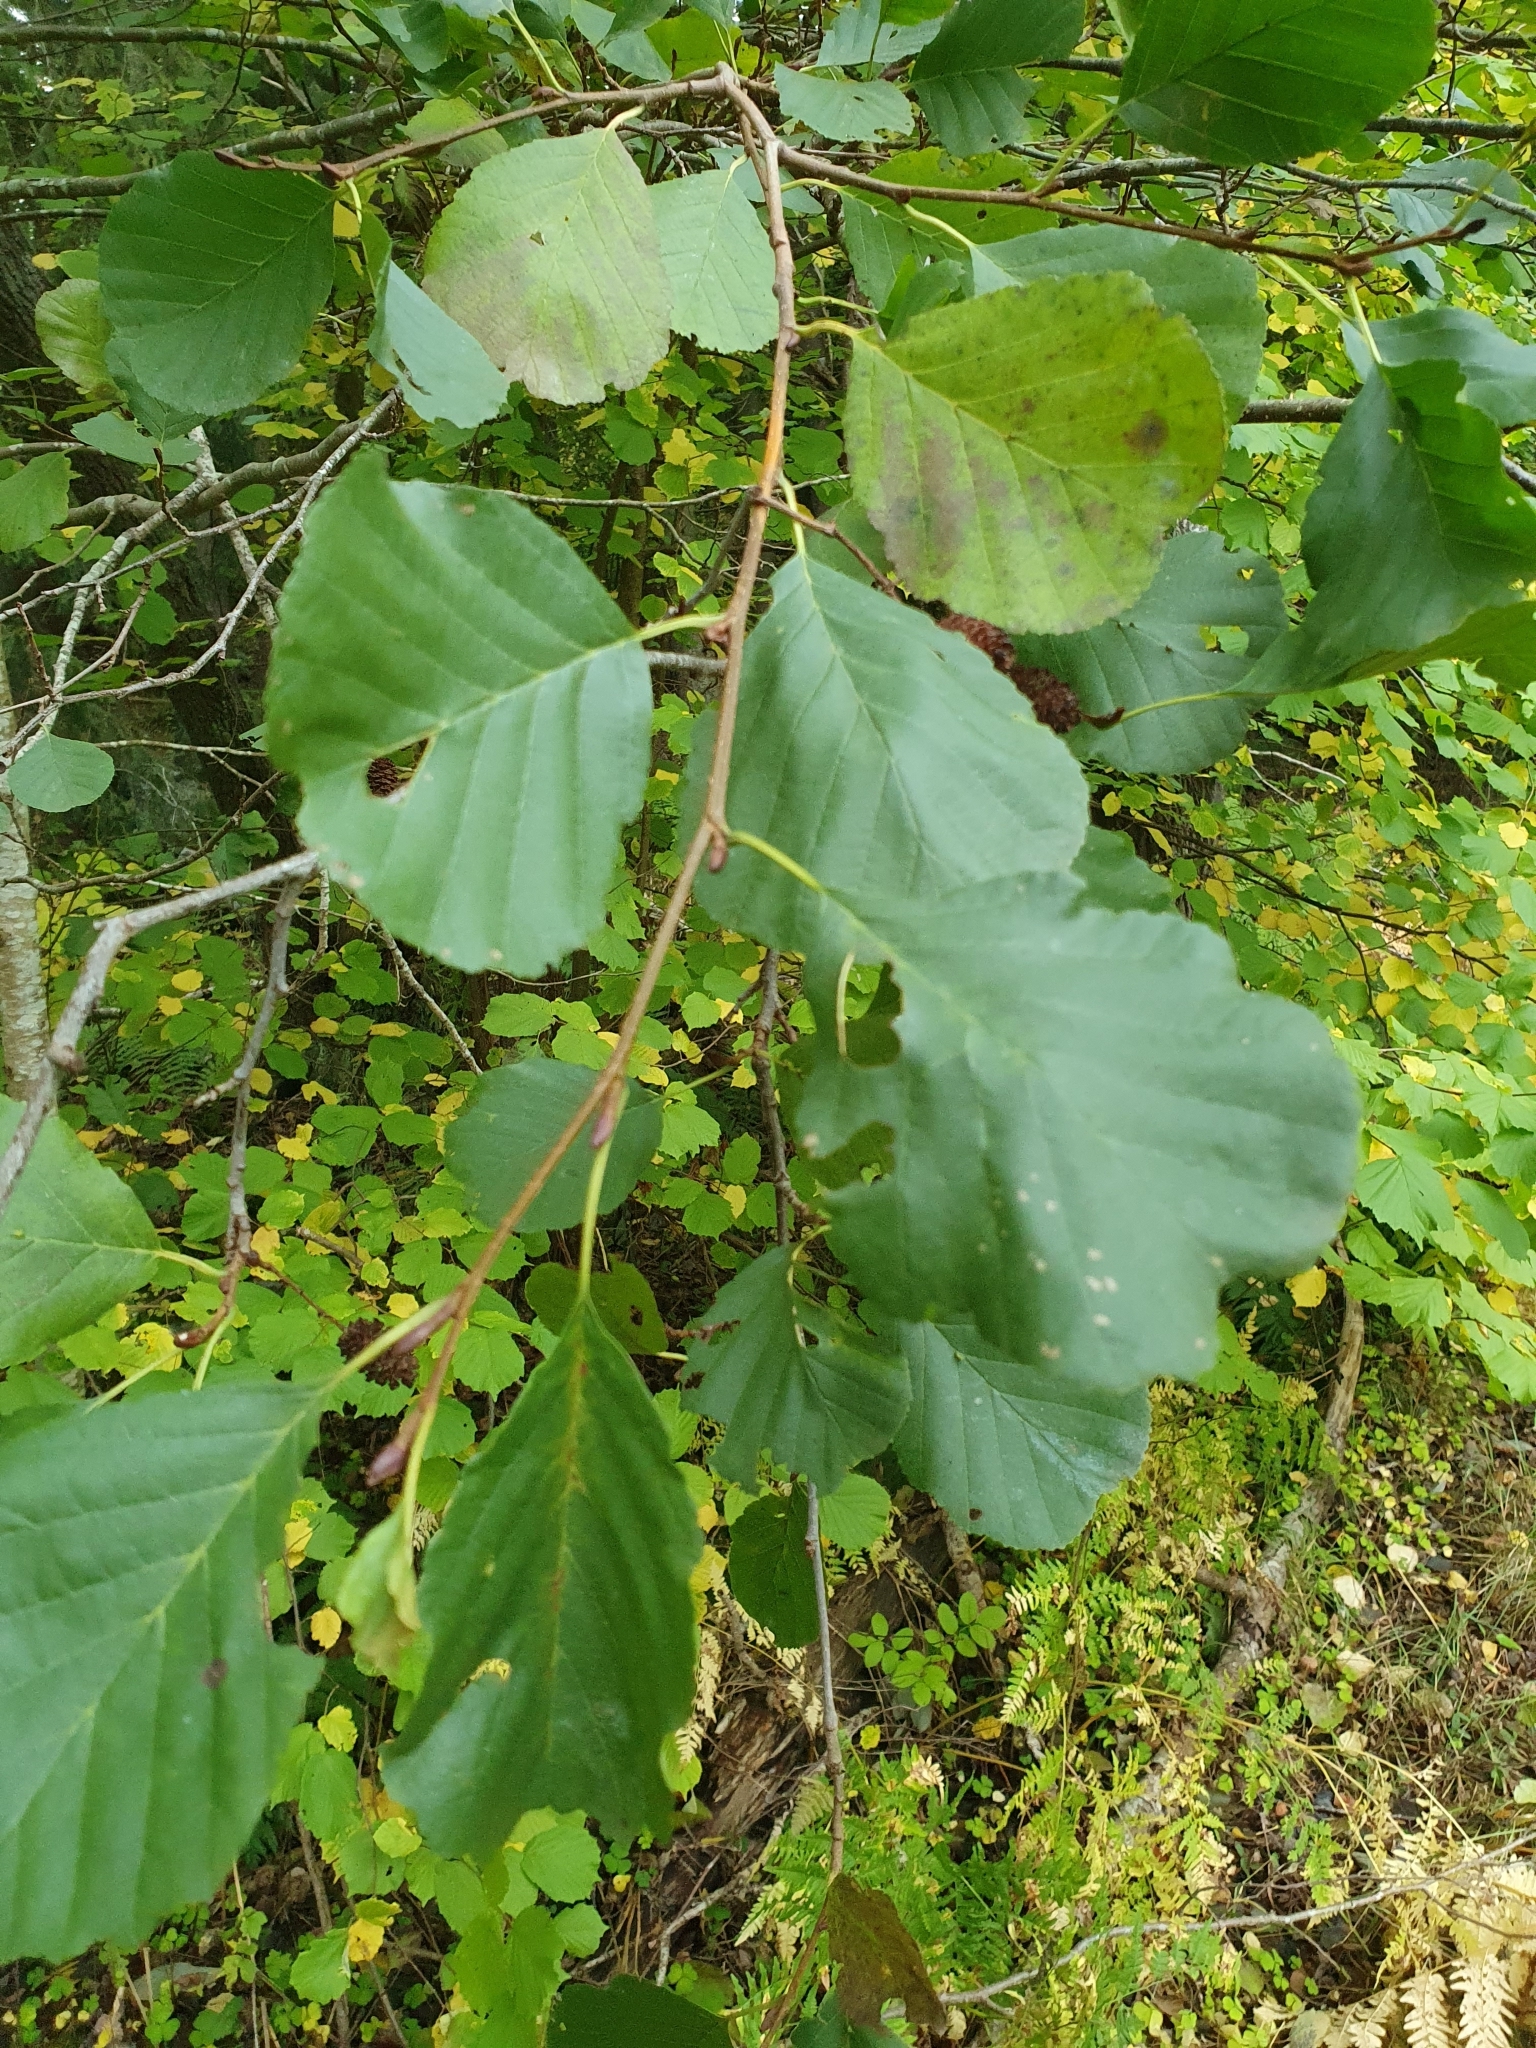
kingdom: Plantae
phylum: Tracheophyta
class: Magnoliopsida
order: Fagales
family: Betulaceae
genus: Alnus
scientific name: Alnus glutinosa
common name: Black alder
